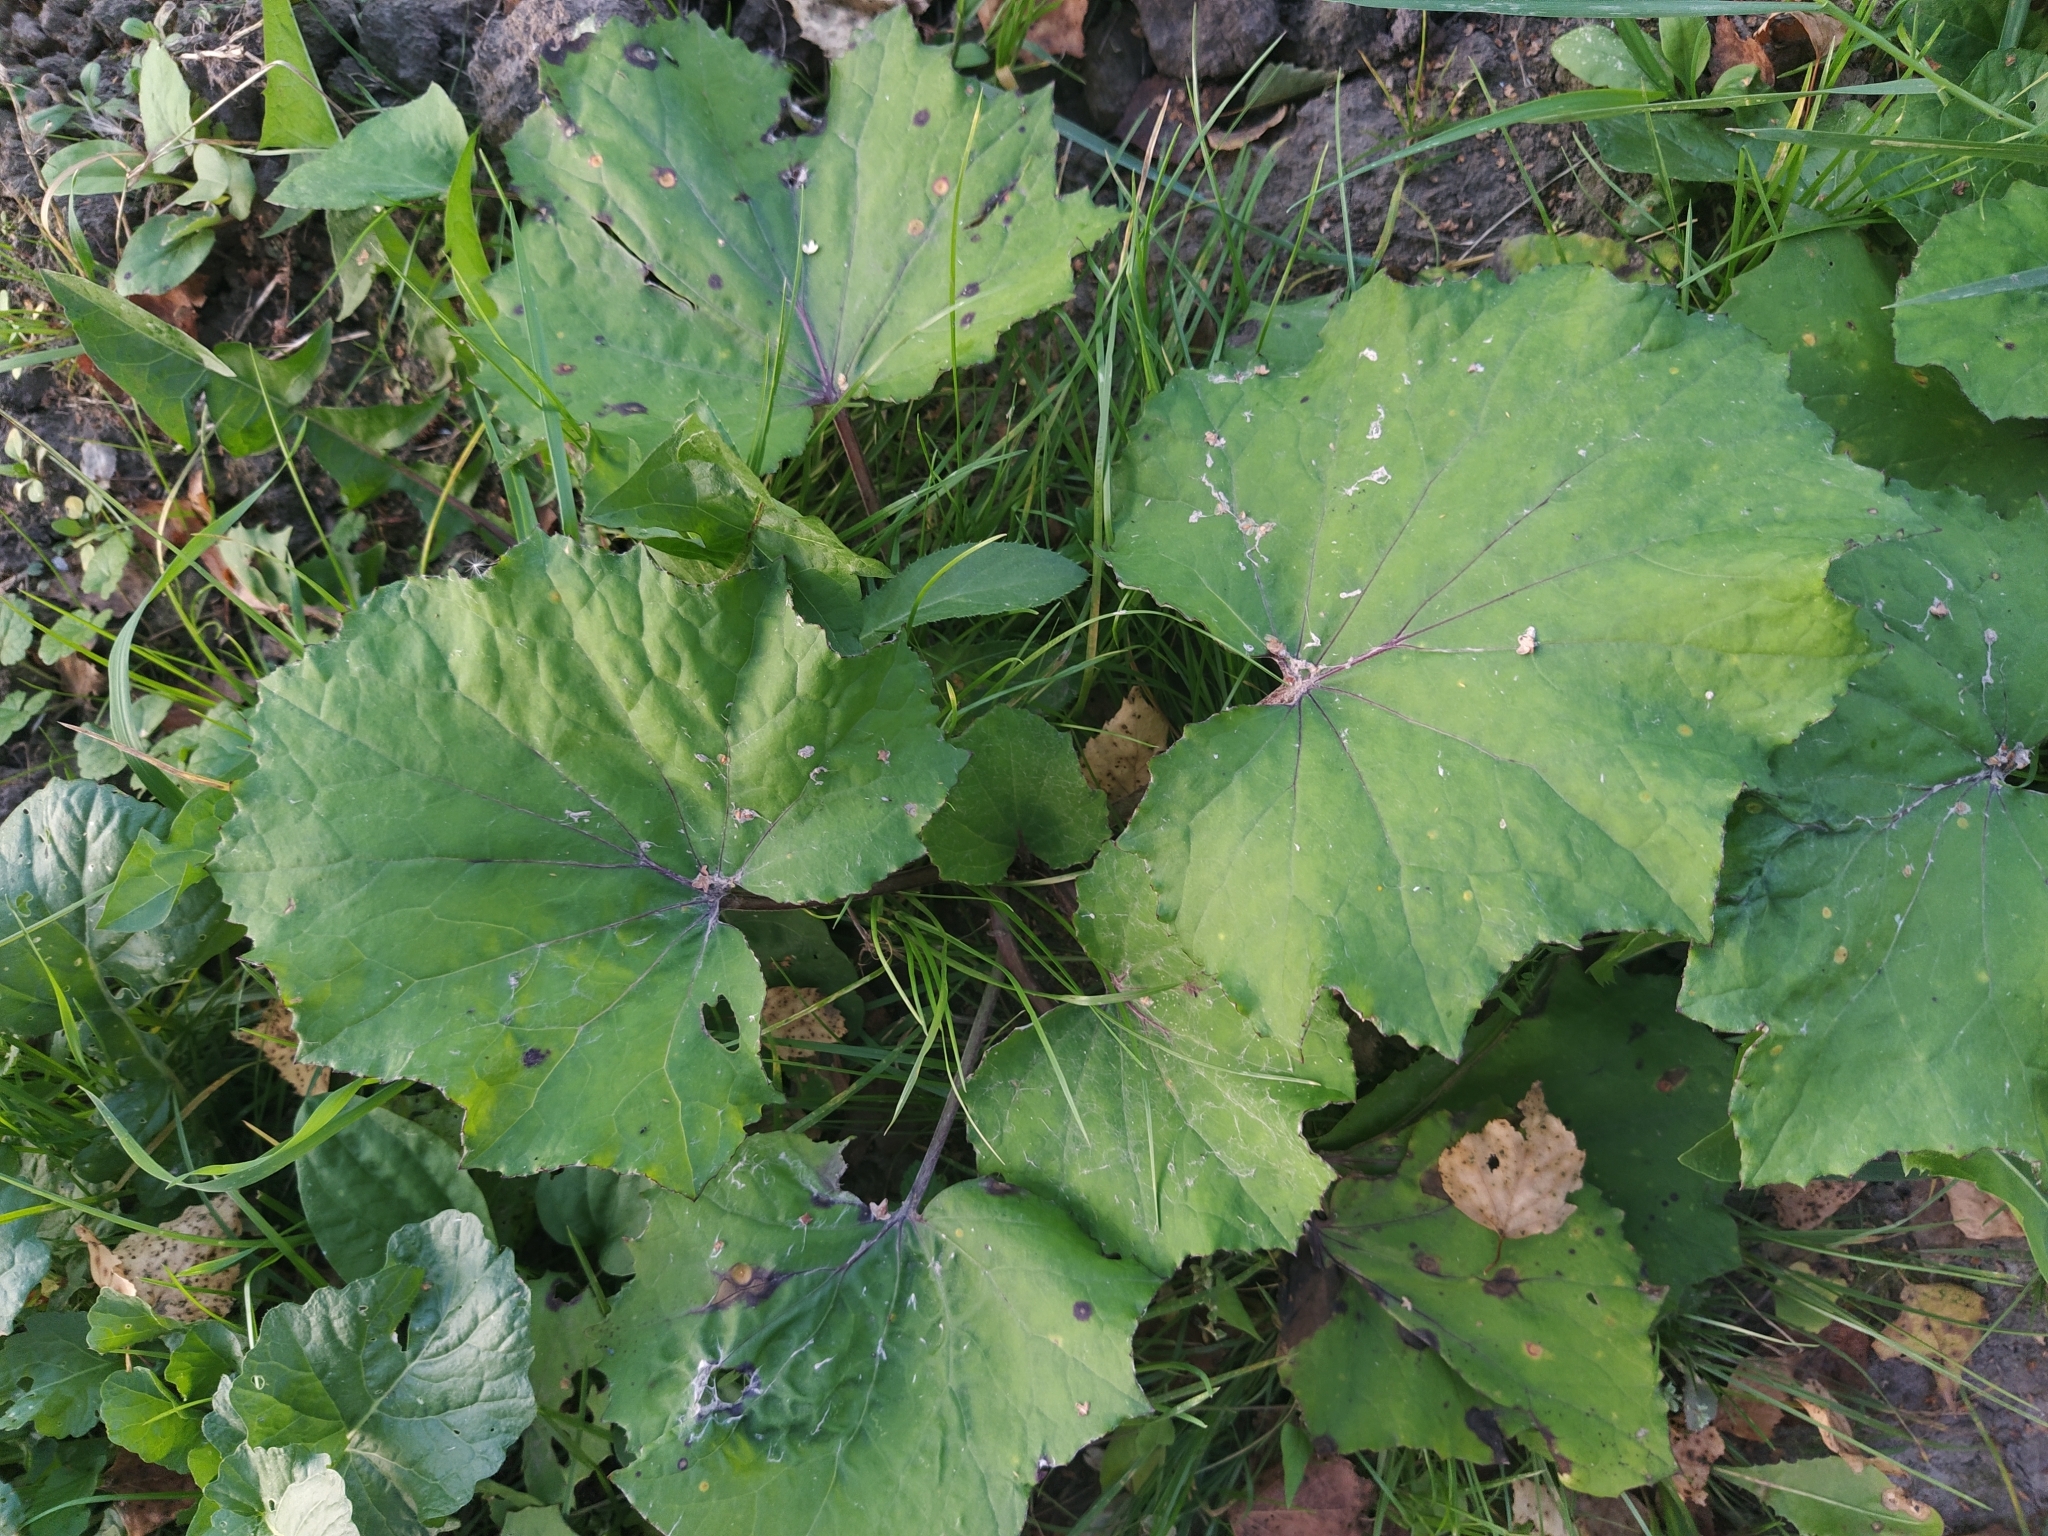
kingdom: Plantae
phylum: Tracheophyta
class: Magnoliopsida
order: Asterales
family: Asteraceae
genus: Tussilago
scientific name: Tussilago farfara
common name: Coltsfoot
